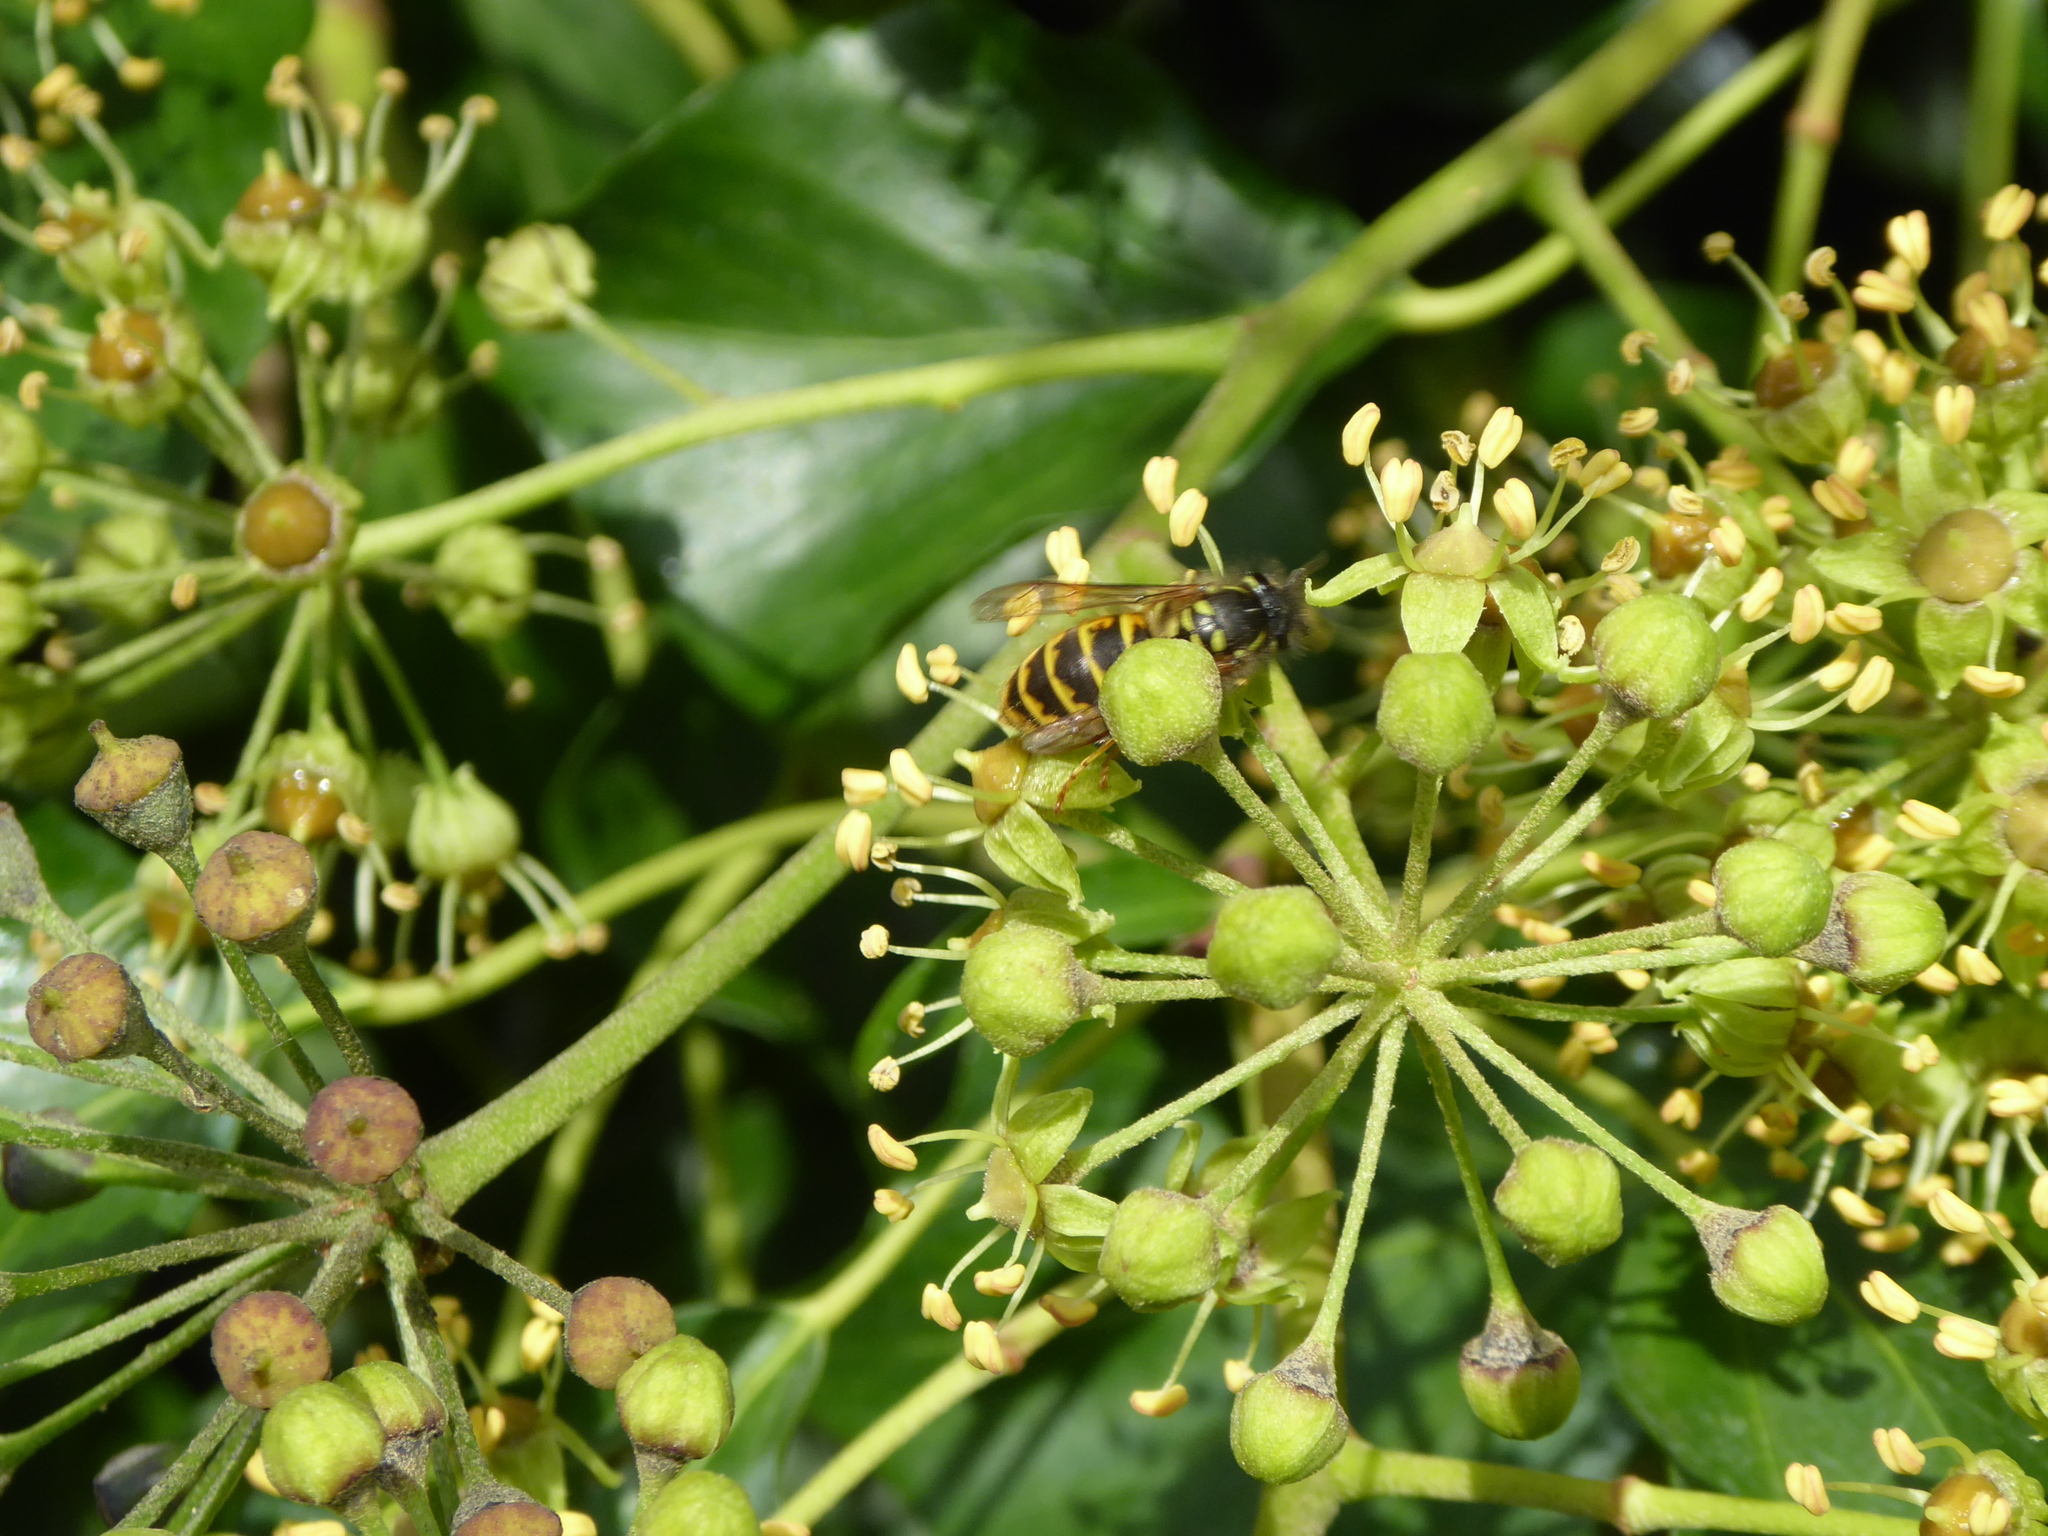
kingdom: Animalia
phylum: Arthropoda
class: Insecta
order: Hymenoptera
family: Vespidae
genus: Vespula
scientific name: Vespula vulgaris
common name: Common wasp
